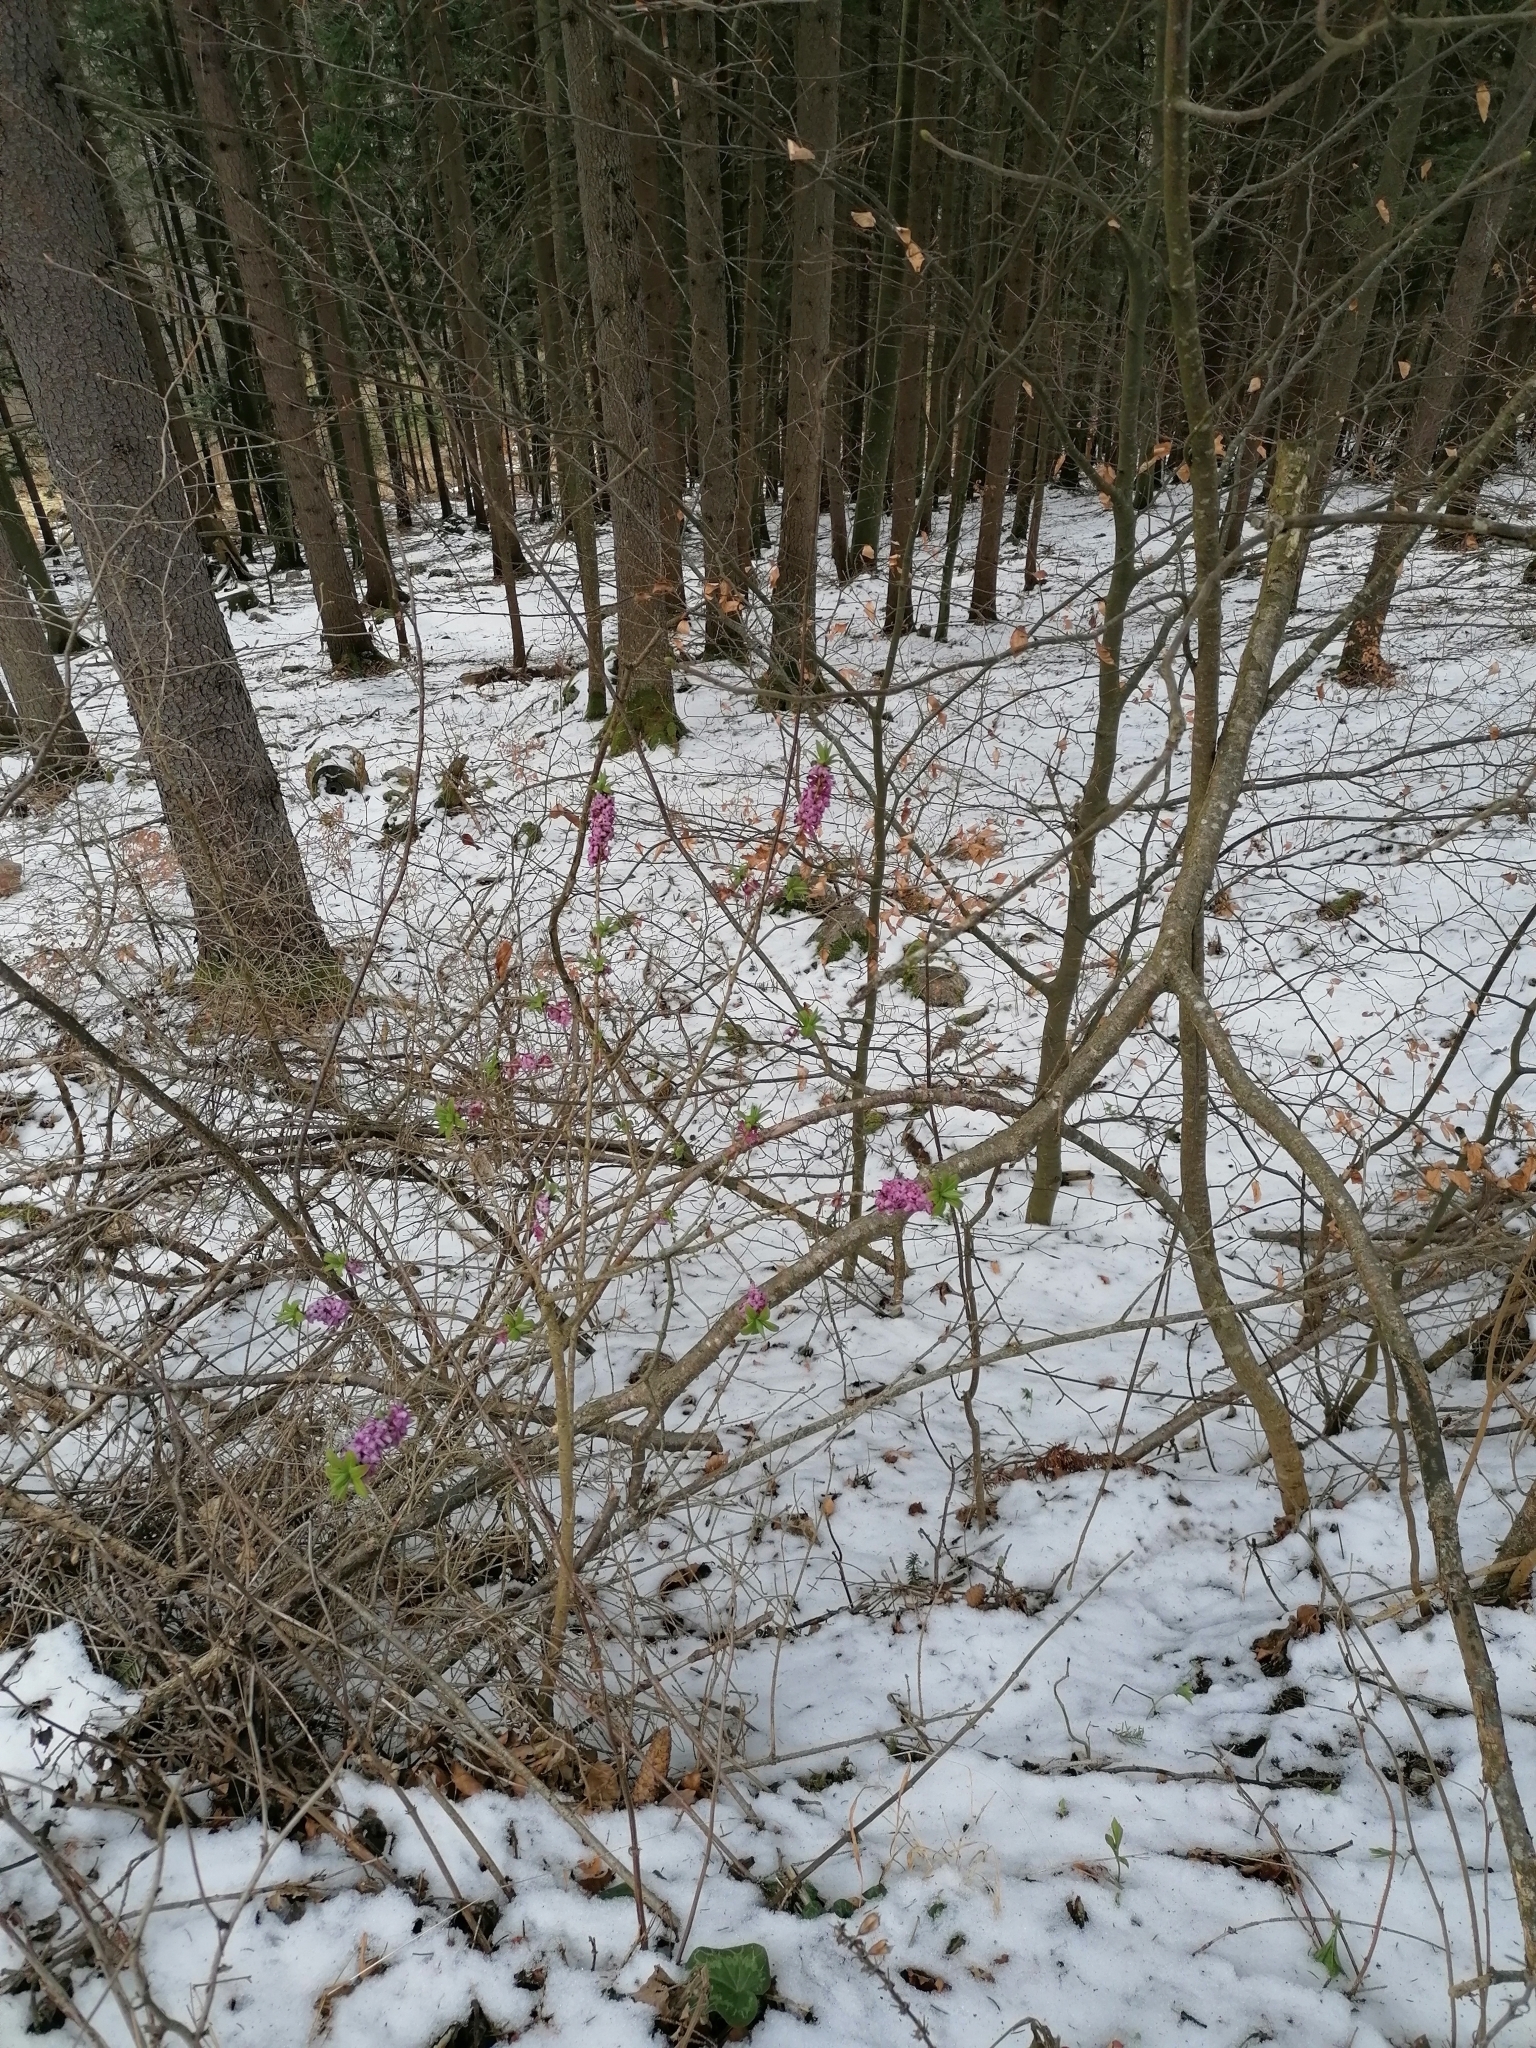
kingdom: Plantae
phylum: Tracheophyta
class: Magnoliopsida
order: Malvales
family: Thymelaeaceae
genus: Daphne
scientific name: Daphne mezereum
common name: Mezereon
